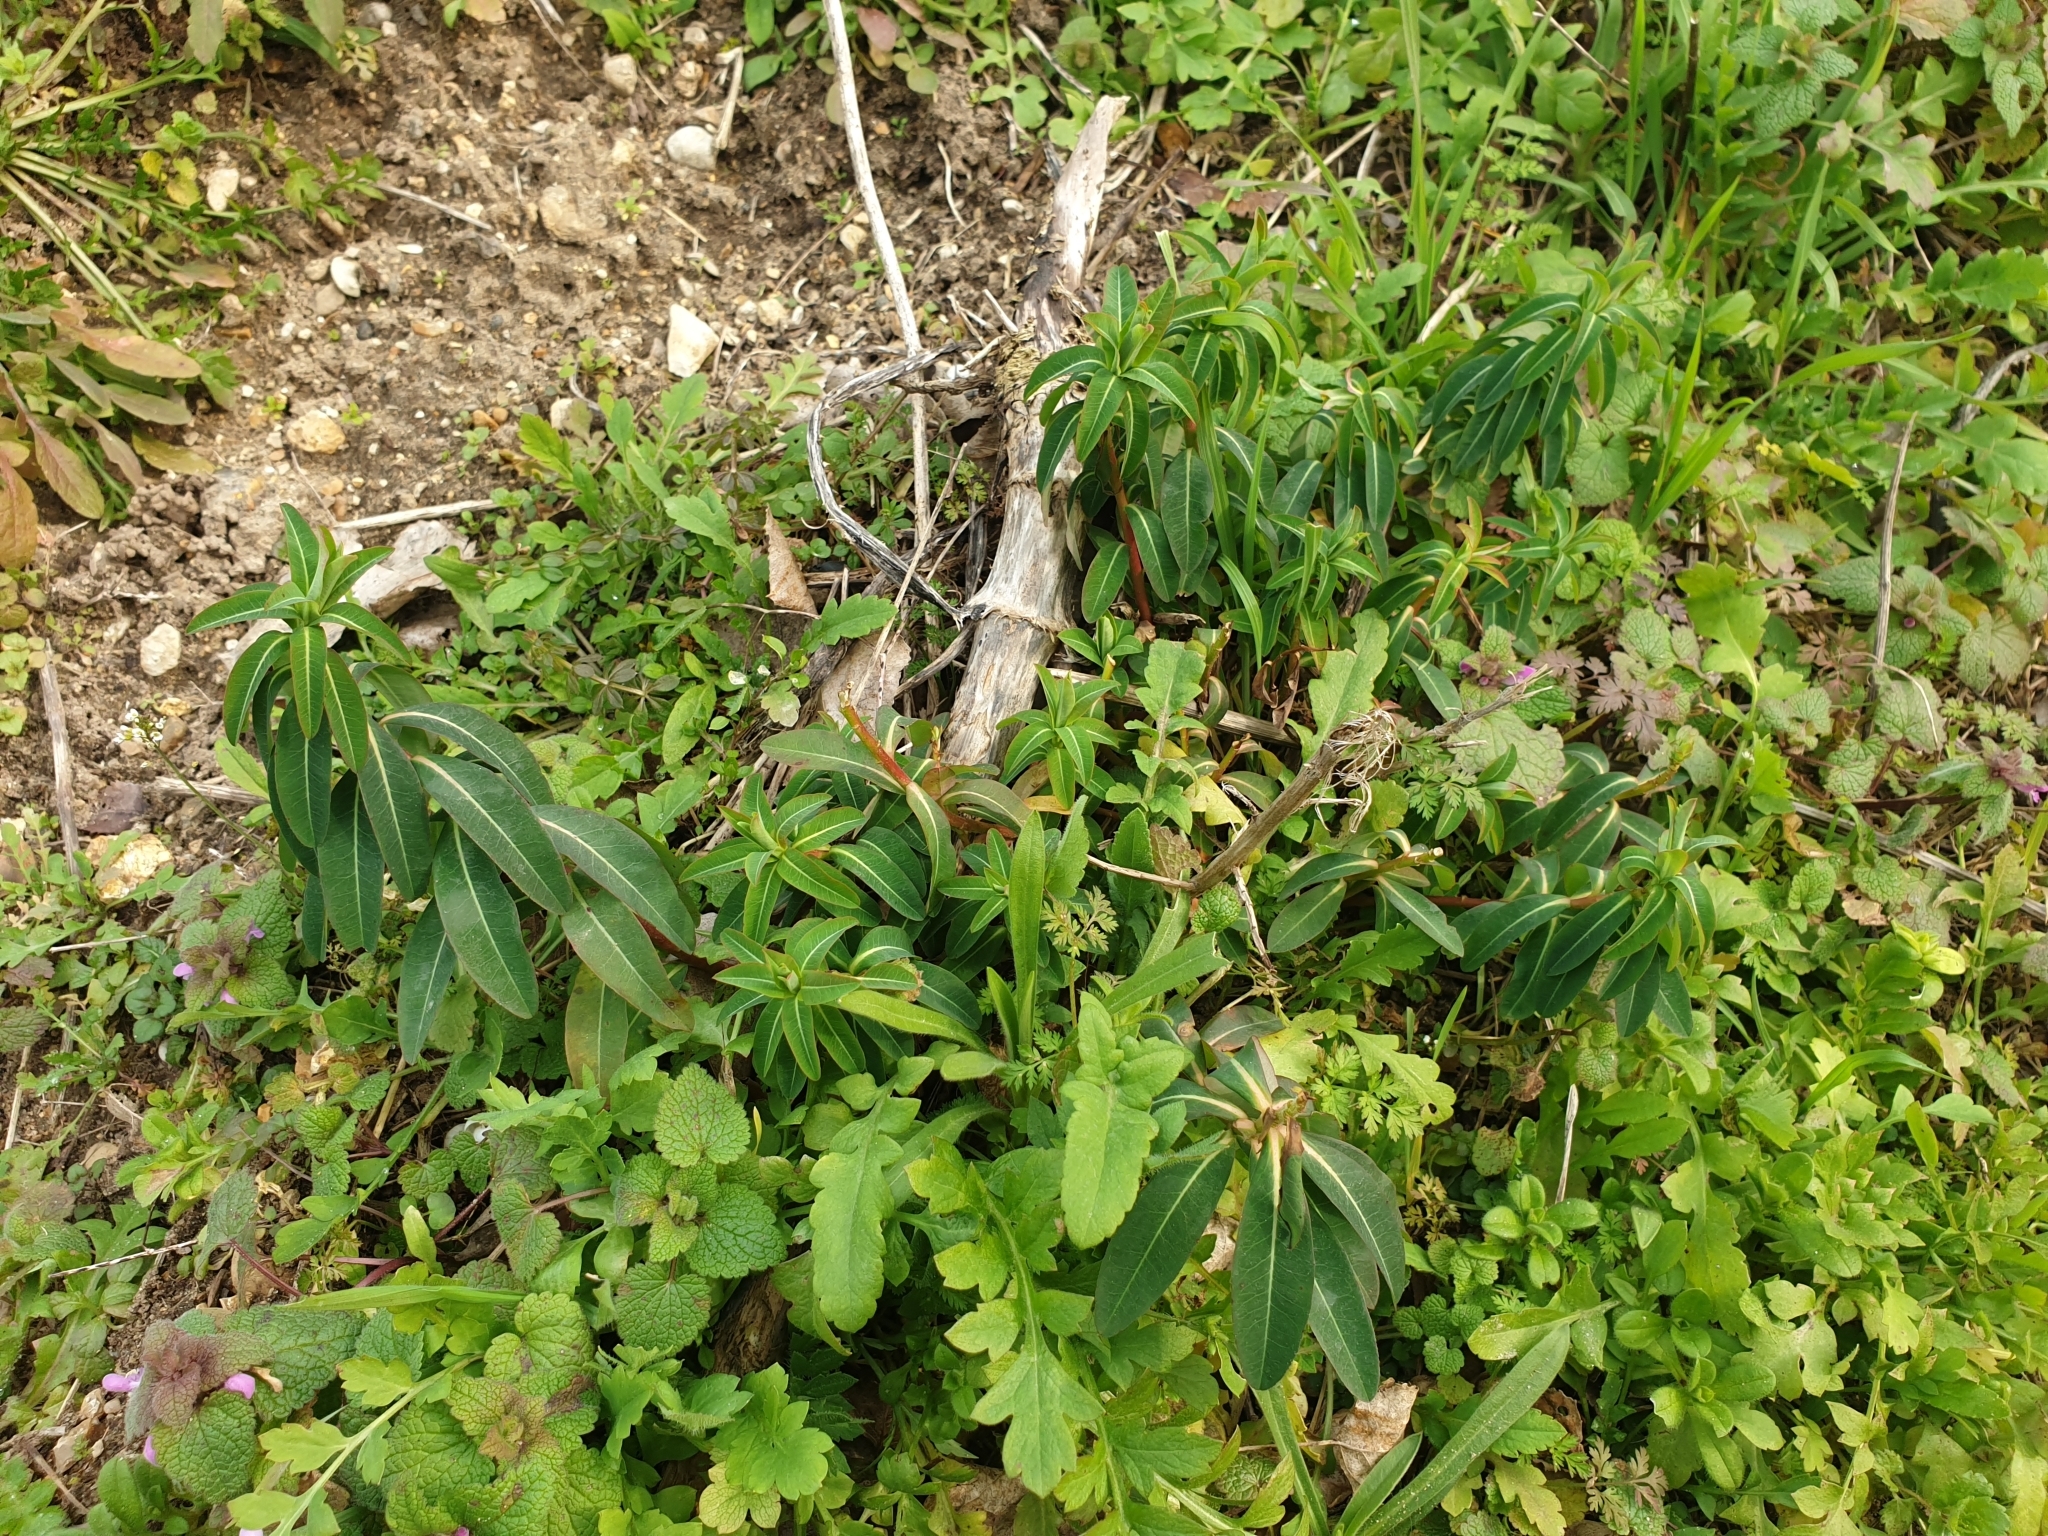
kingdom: Plantae
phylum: Tracheophyta
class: Magnoliopsida
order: Malpighiales
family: Euphorbiaceae
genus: Euphorbia
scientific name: Euphorbia oblongata
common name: Balkan spurge
